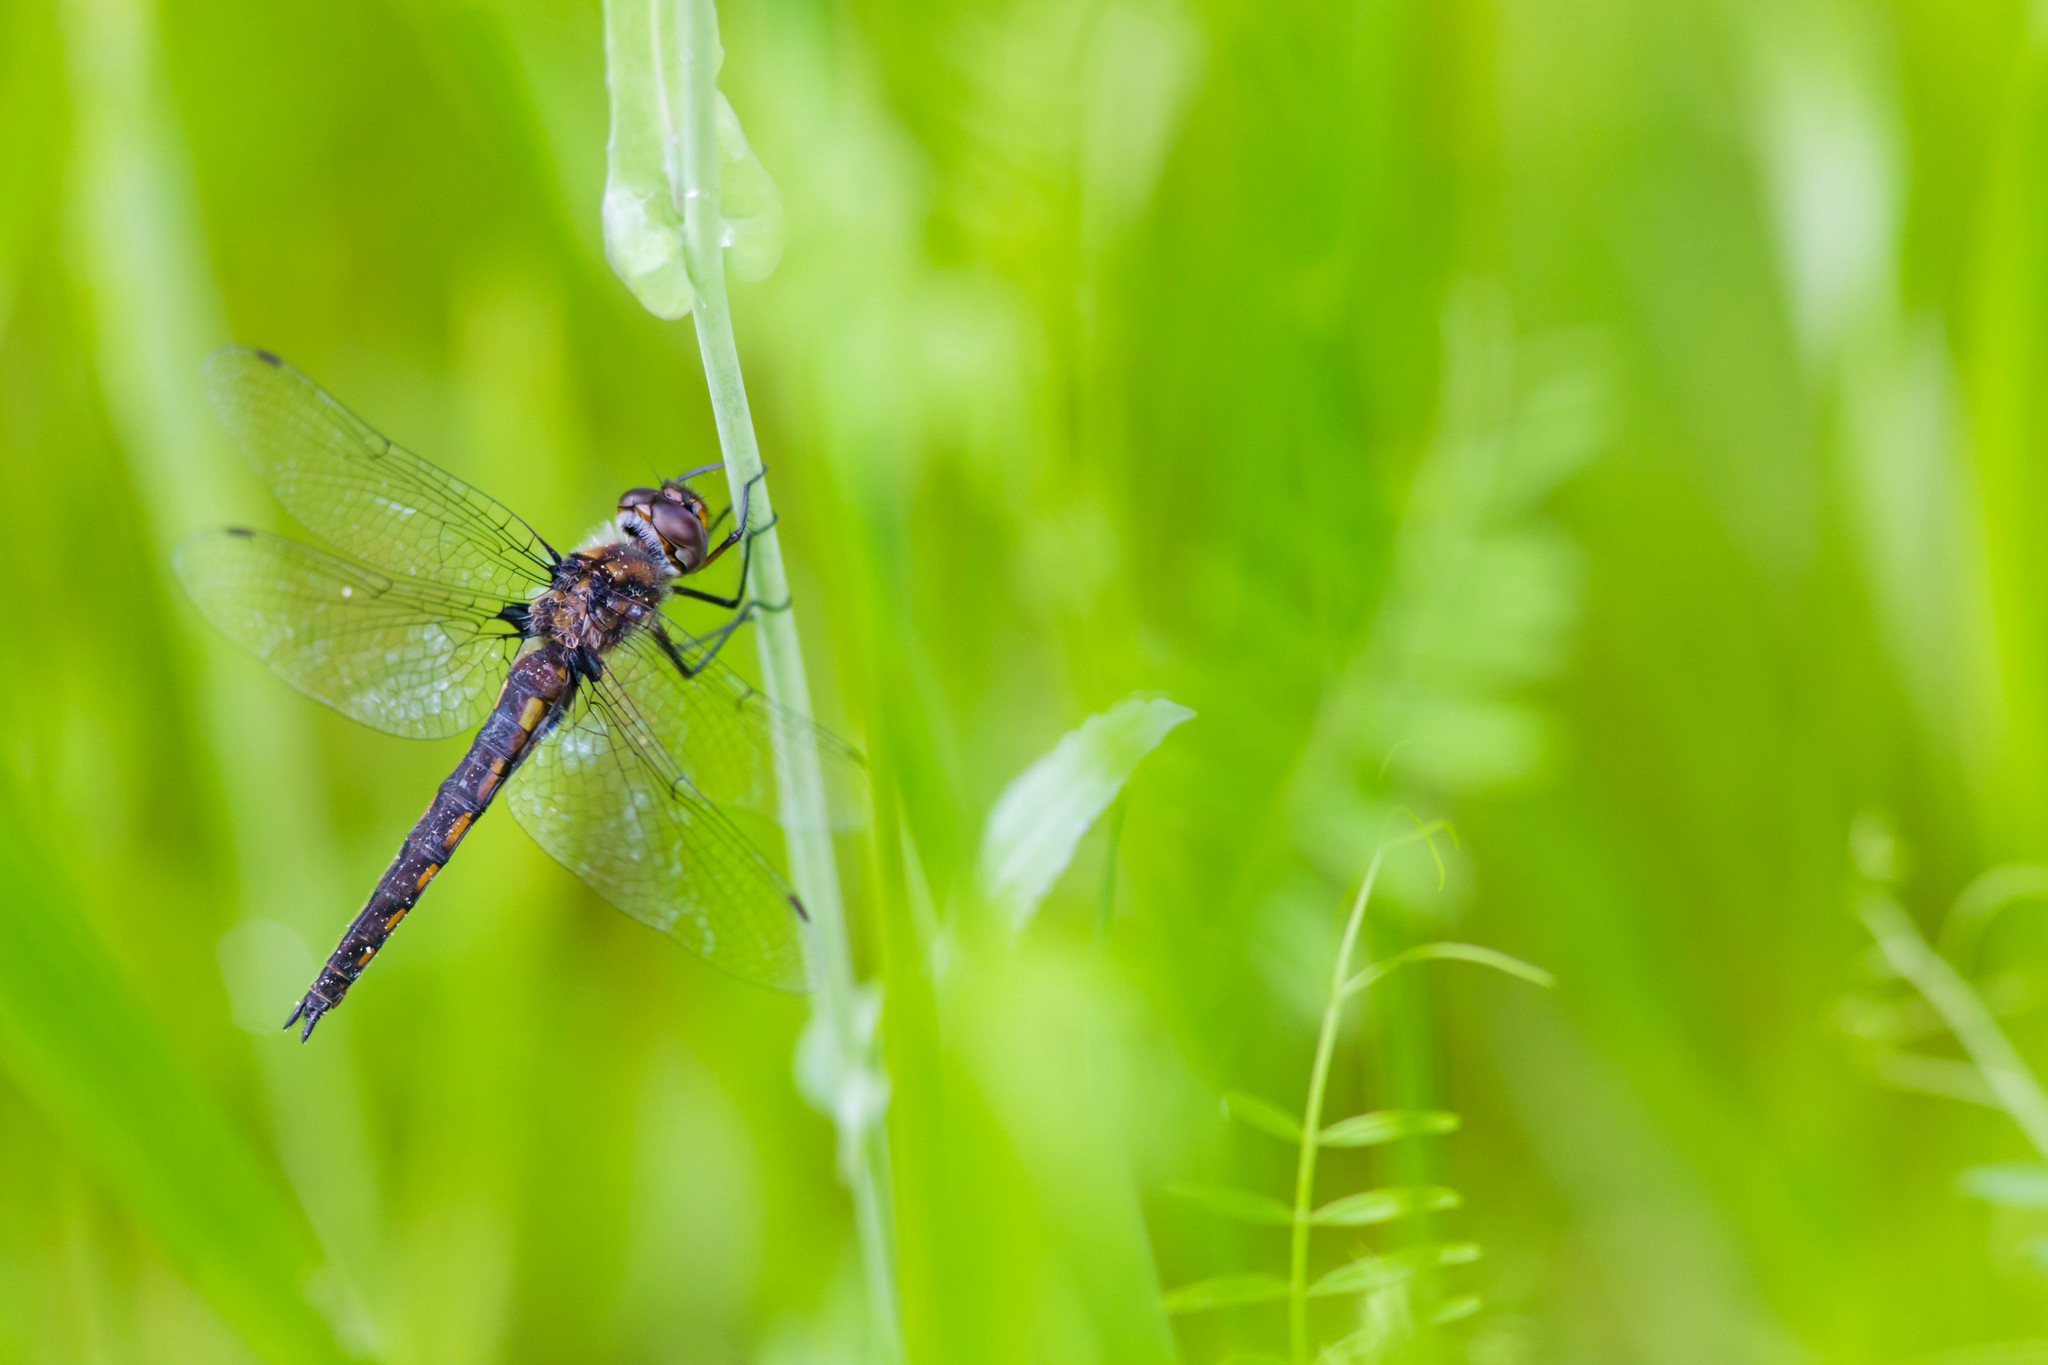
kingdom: Animalia
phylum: Arthropoda
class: Insecta
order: Odonata
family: Corduliidae
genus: Epitheca
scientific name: Epitheca cynosura
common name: Common baskettail
